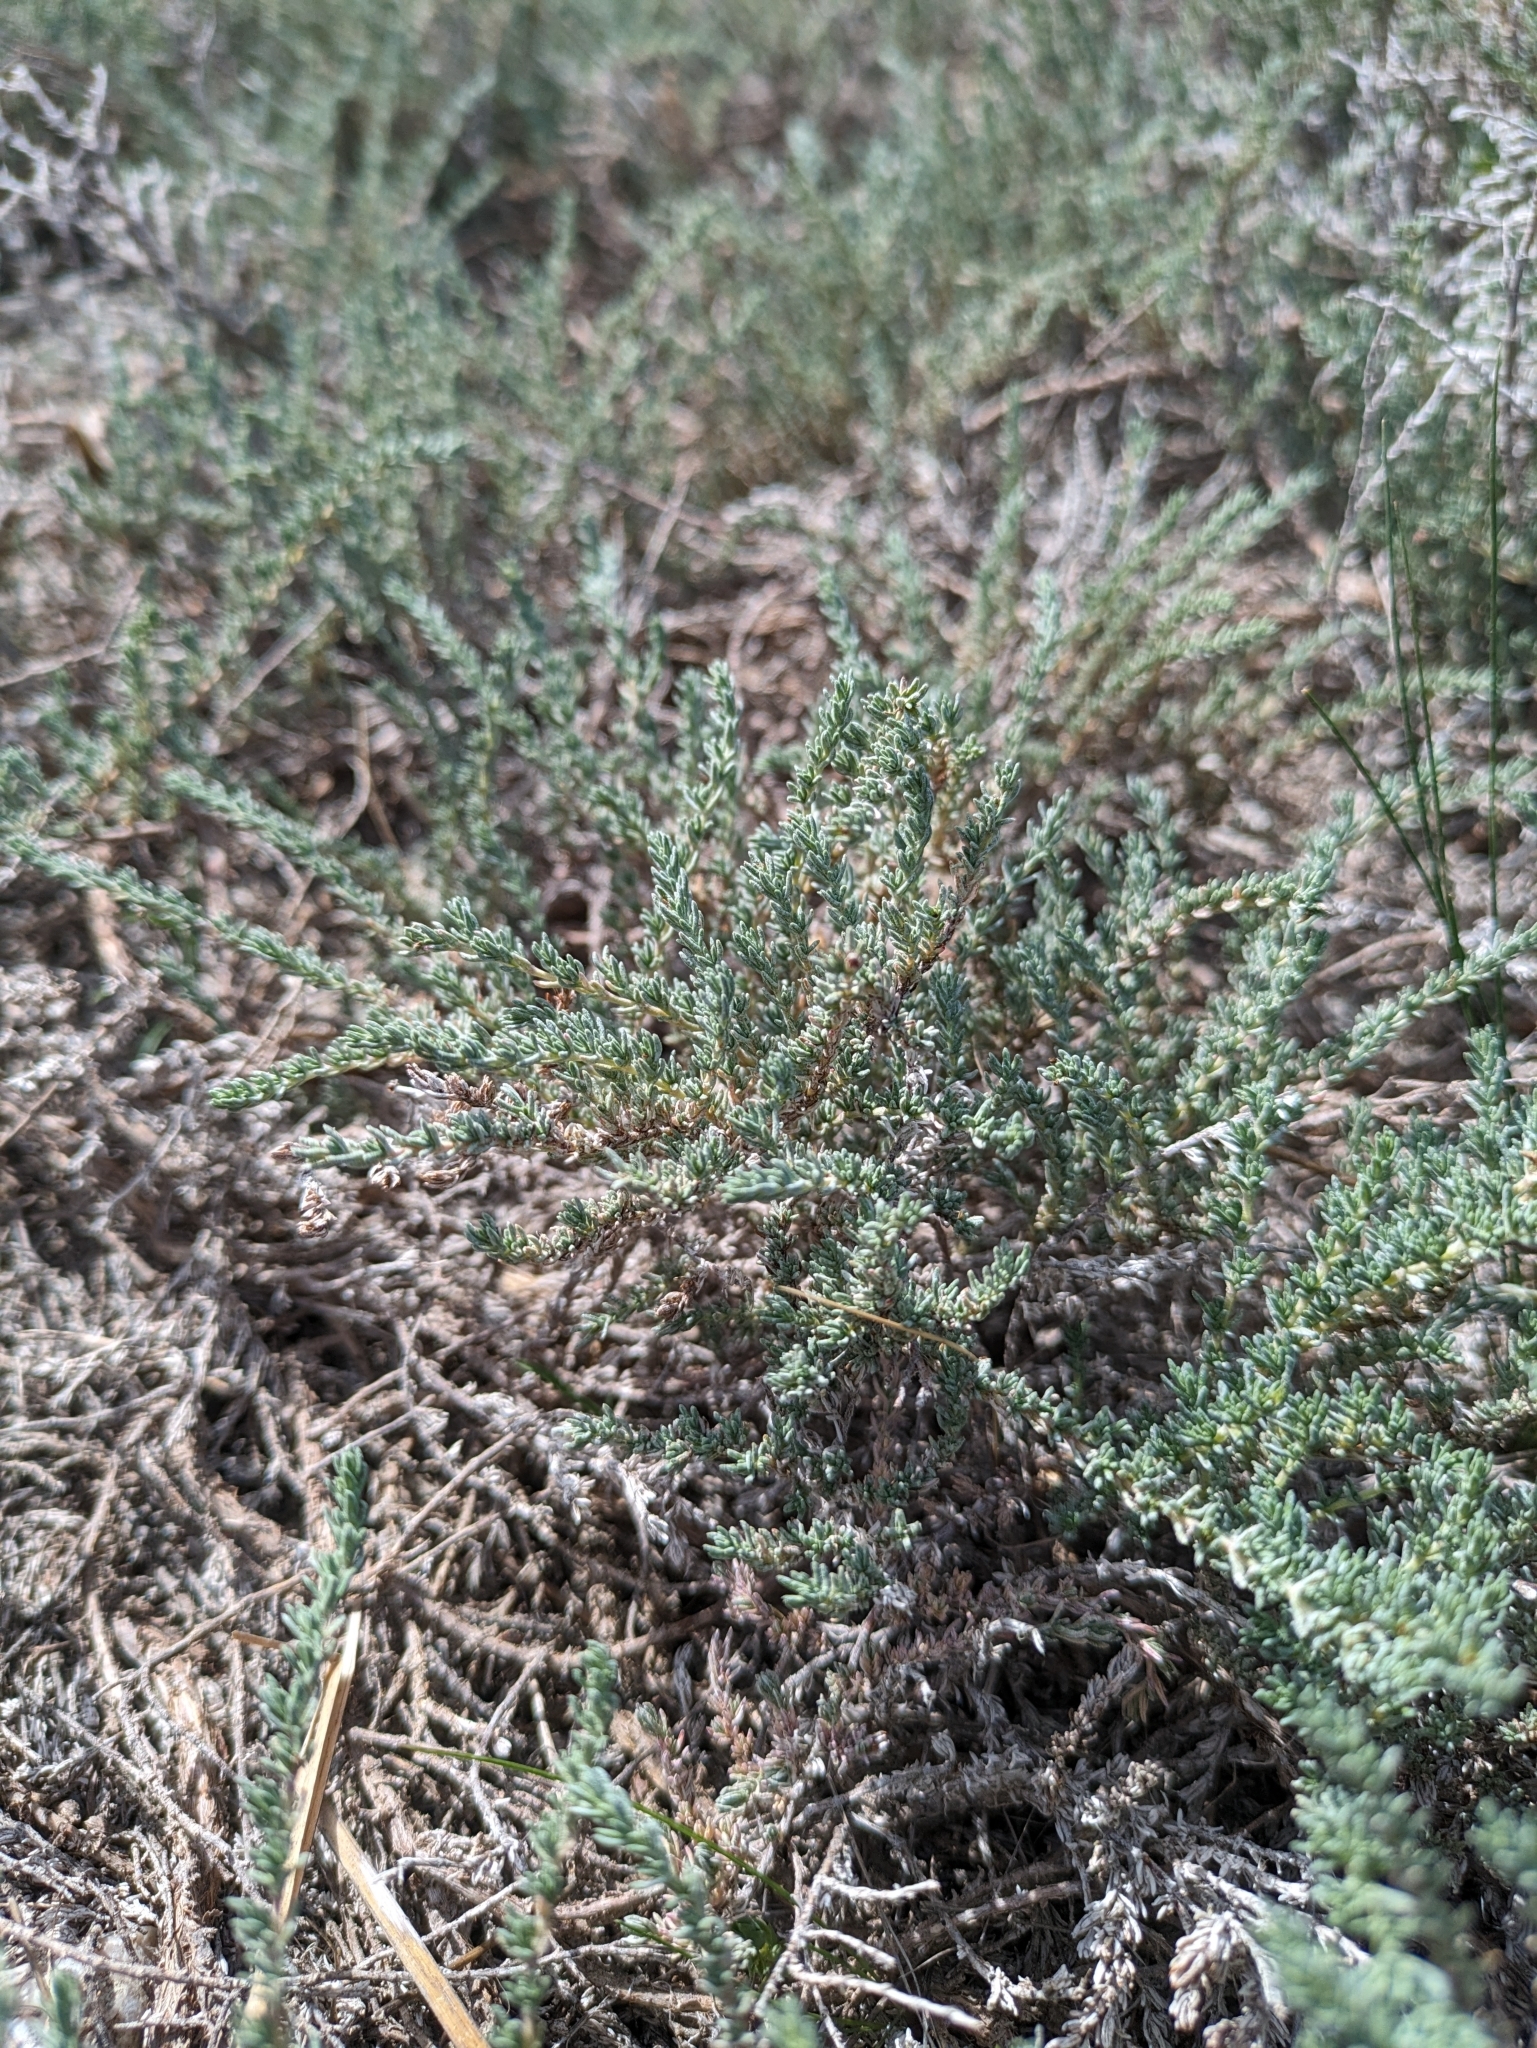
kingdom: Plantae
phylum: Tracheophyta
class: Magnoliopsida
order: Caryophyllales
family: Frankeniaceae
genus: Frankenia
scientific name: Frankenia thymifolia
